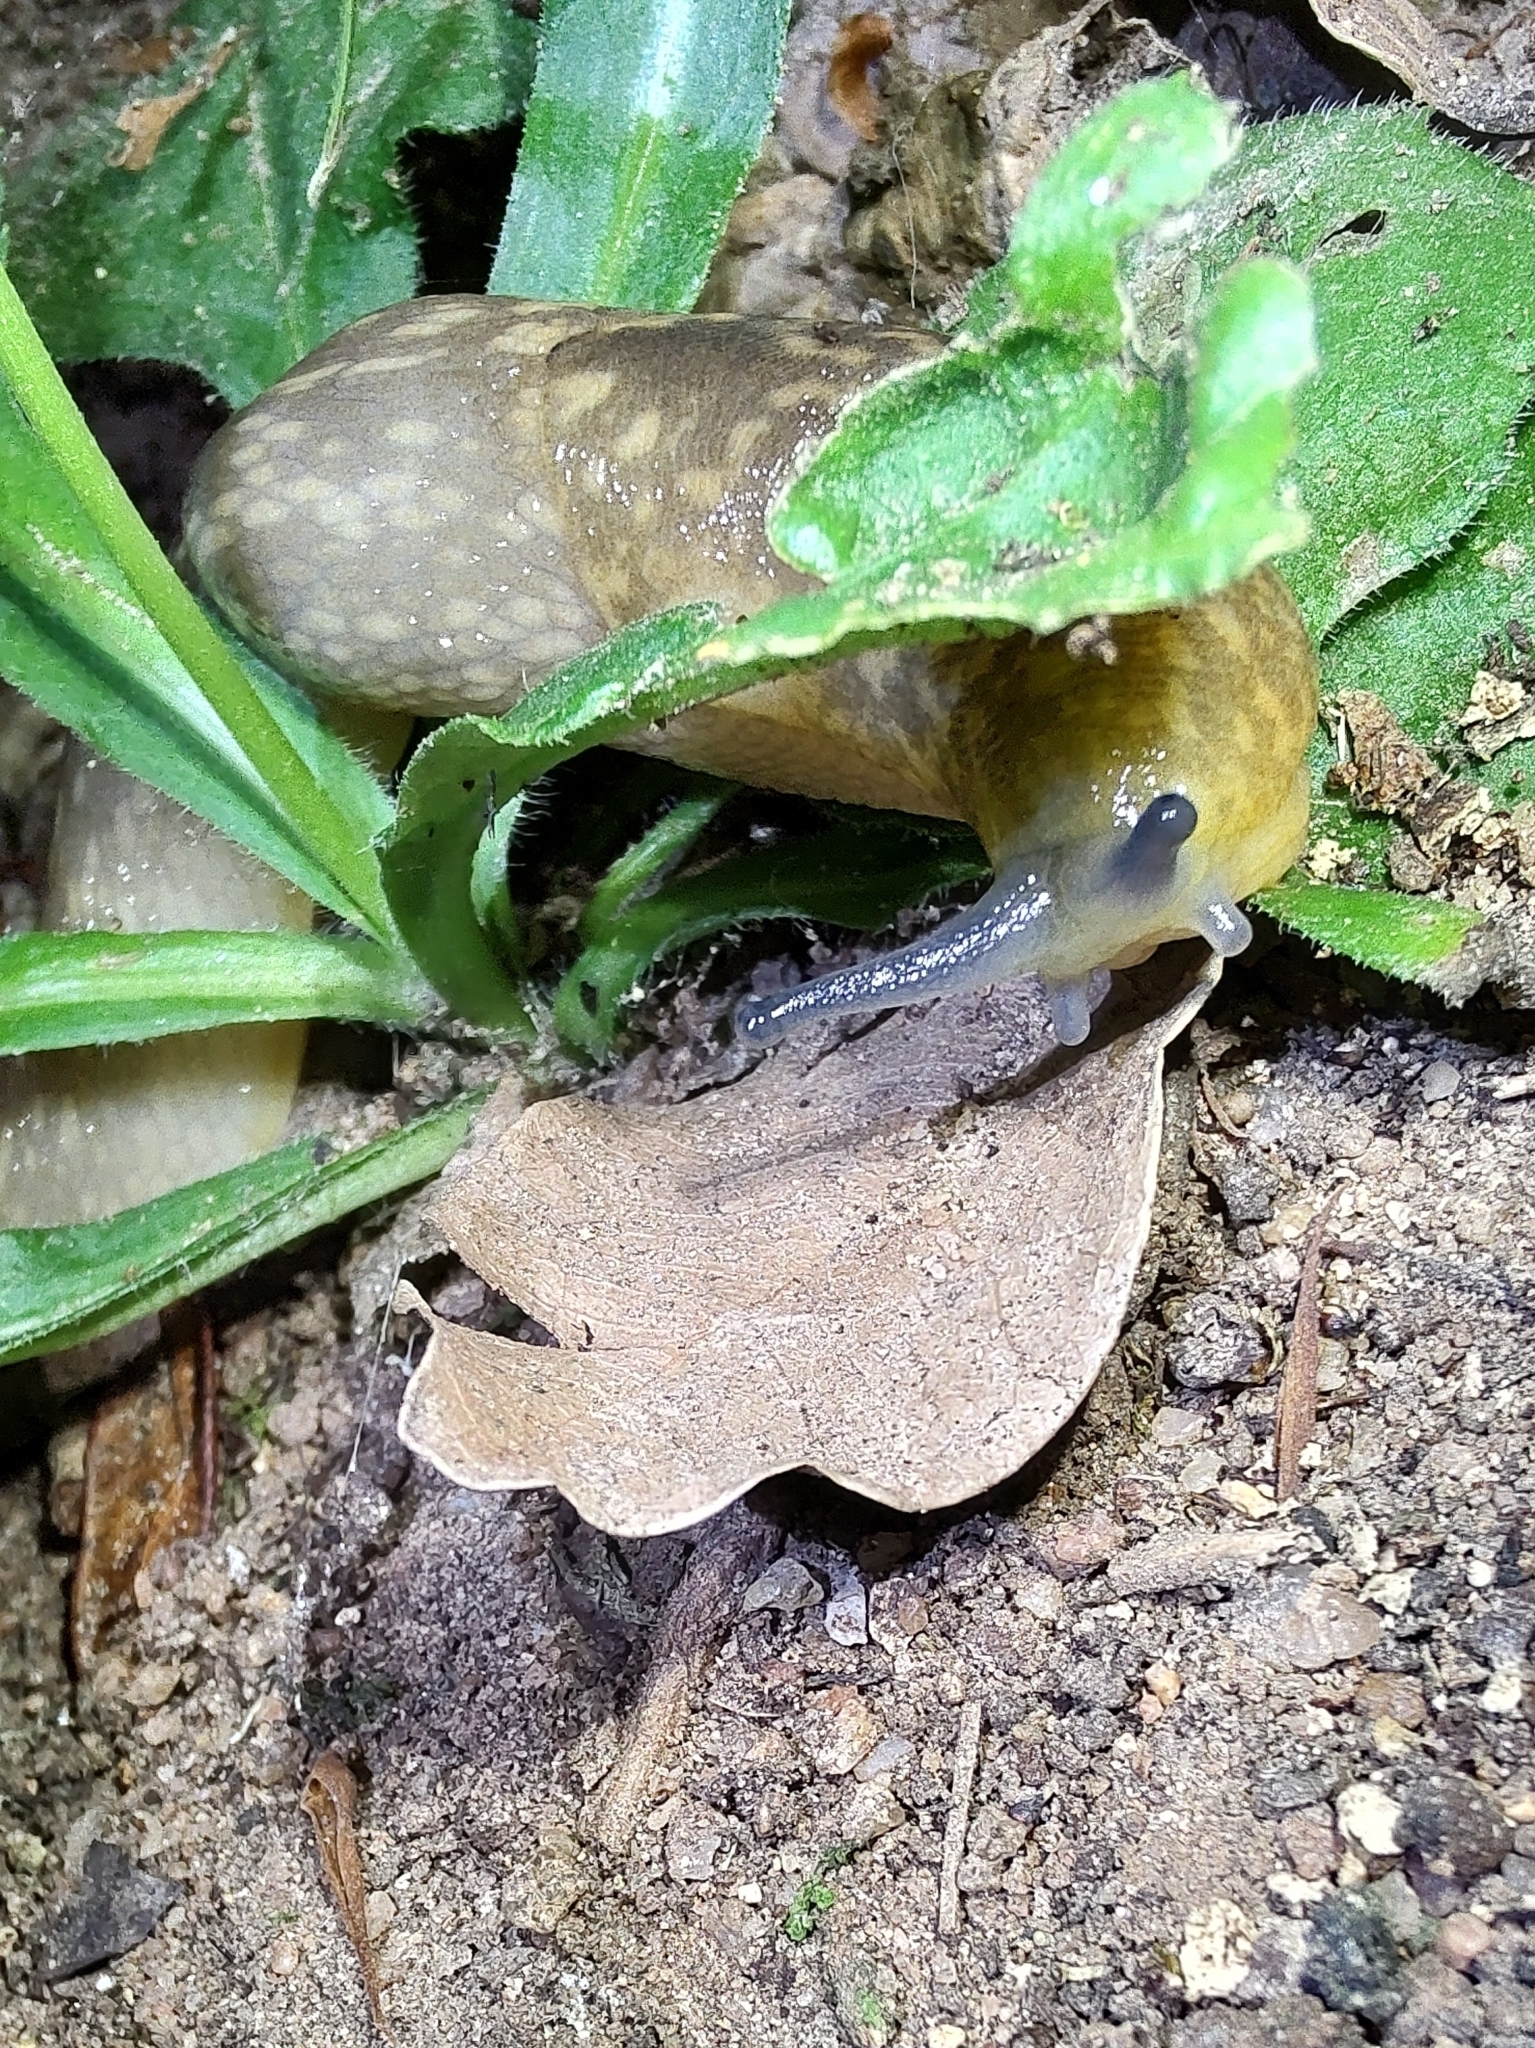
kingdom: Animalia
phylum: Mollusca
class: Gastropoda
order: Stylommatophora
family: Limacidae
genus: Limacus
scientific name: Limacus flavus
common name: Yellow gardenslug
